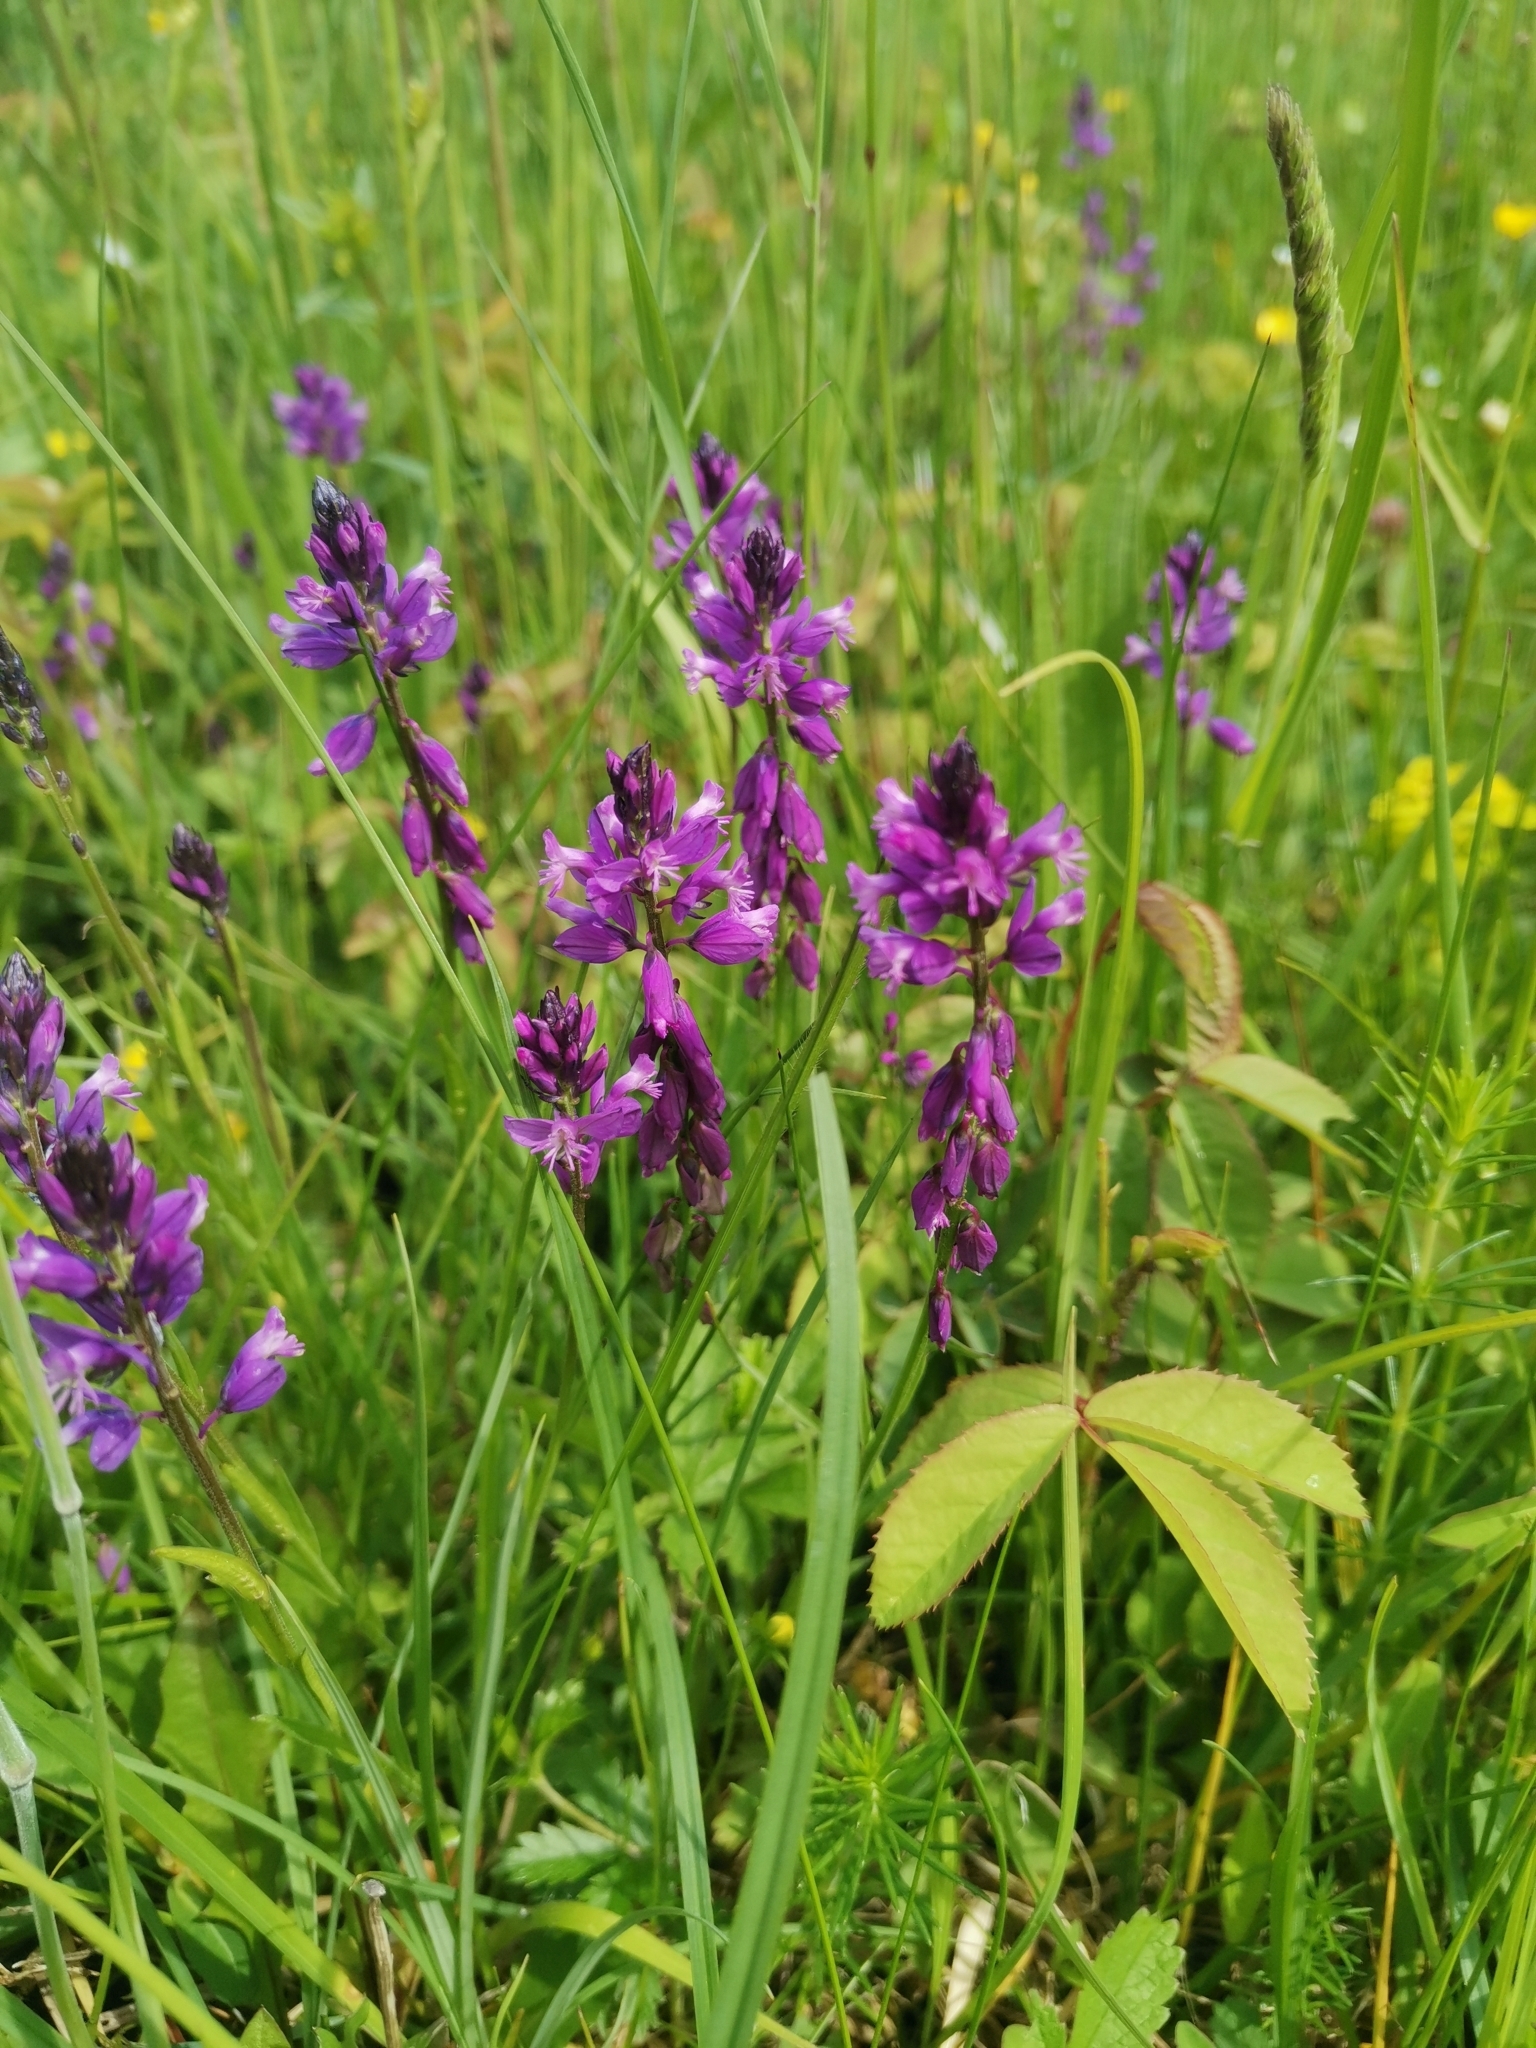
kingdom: Plantae
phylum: Tracheophyta
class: Magnoliopsida
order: Fabales
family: Polygalaceae
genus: Polygala
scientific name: Polygala comosa
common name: Tufted milkwort
